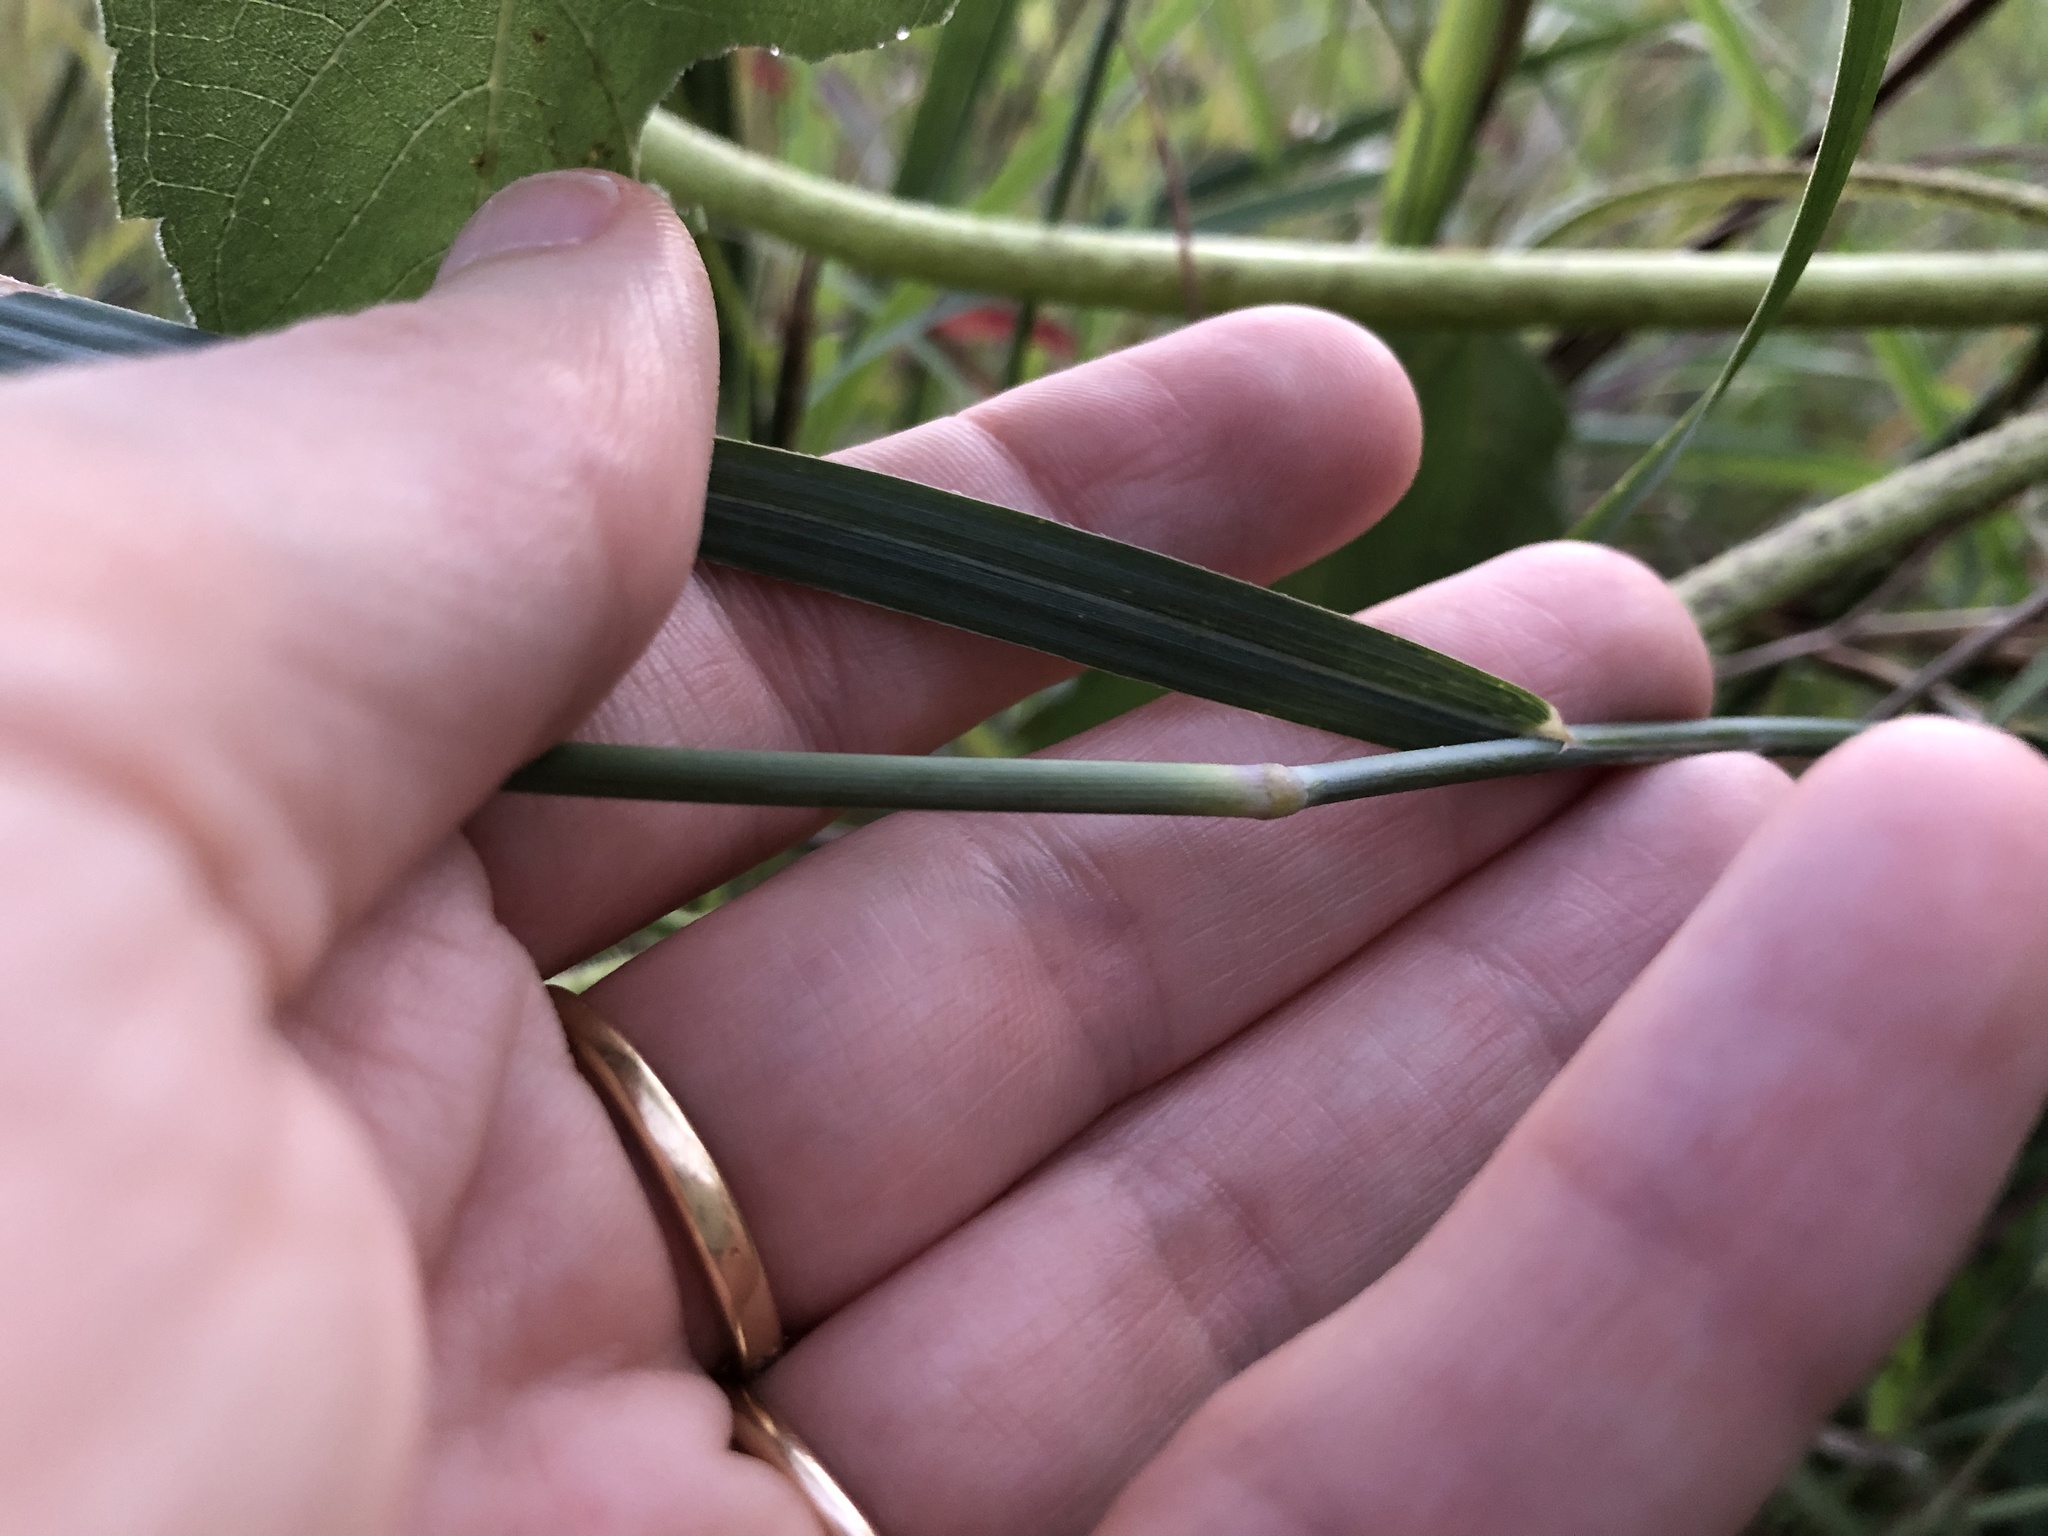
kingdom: Plantae
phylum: Tracheophyta
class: Liliopsida
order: Poales
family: Poaceae
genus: Panicum
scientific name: Panicum virgatum
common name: Switchgrass
